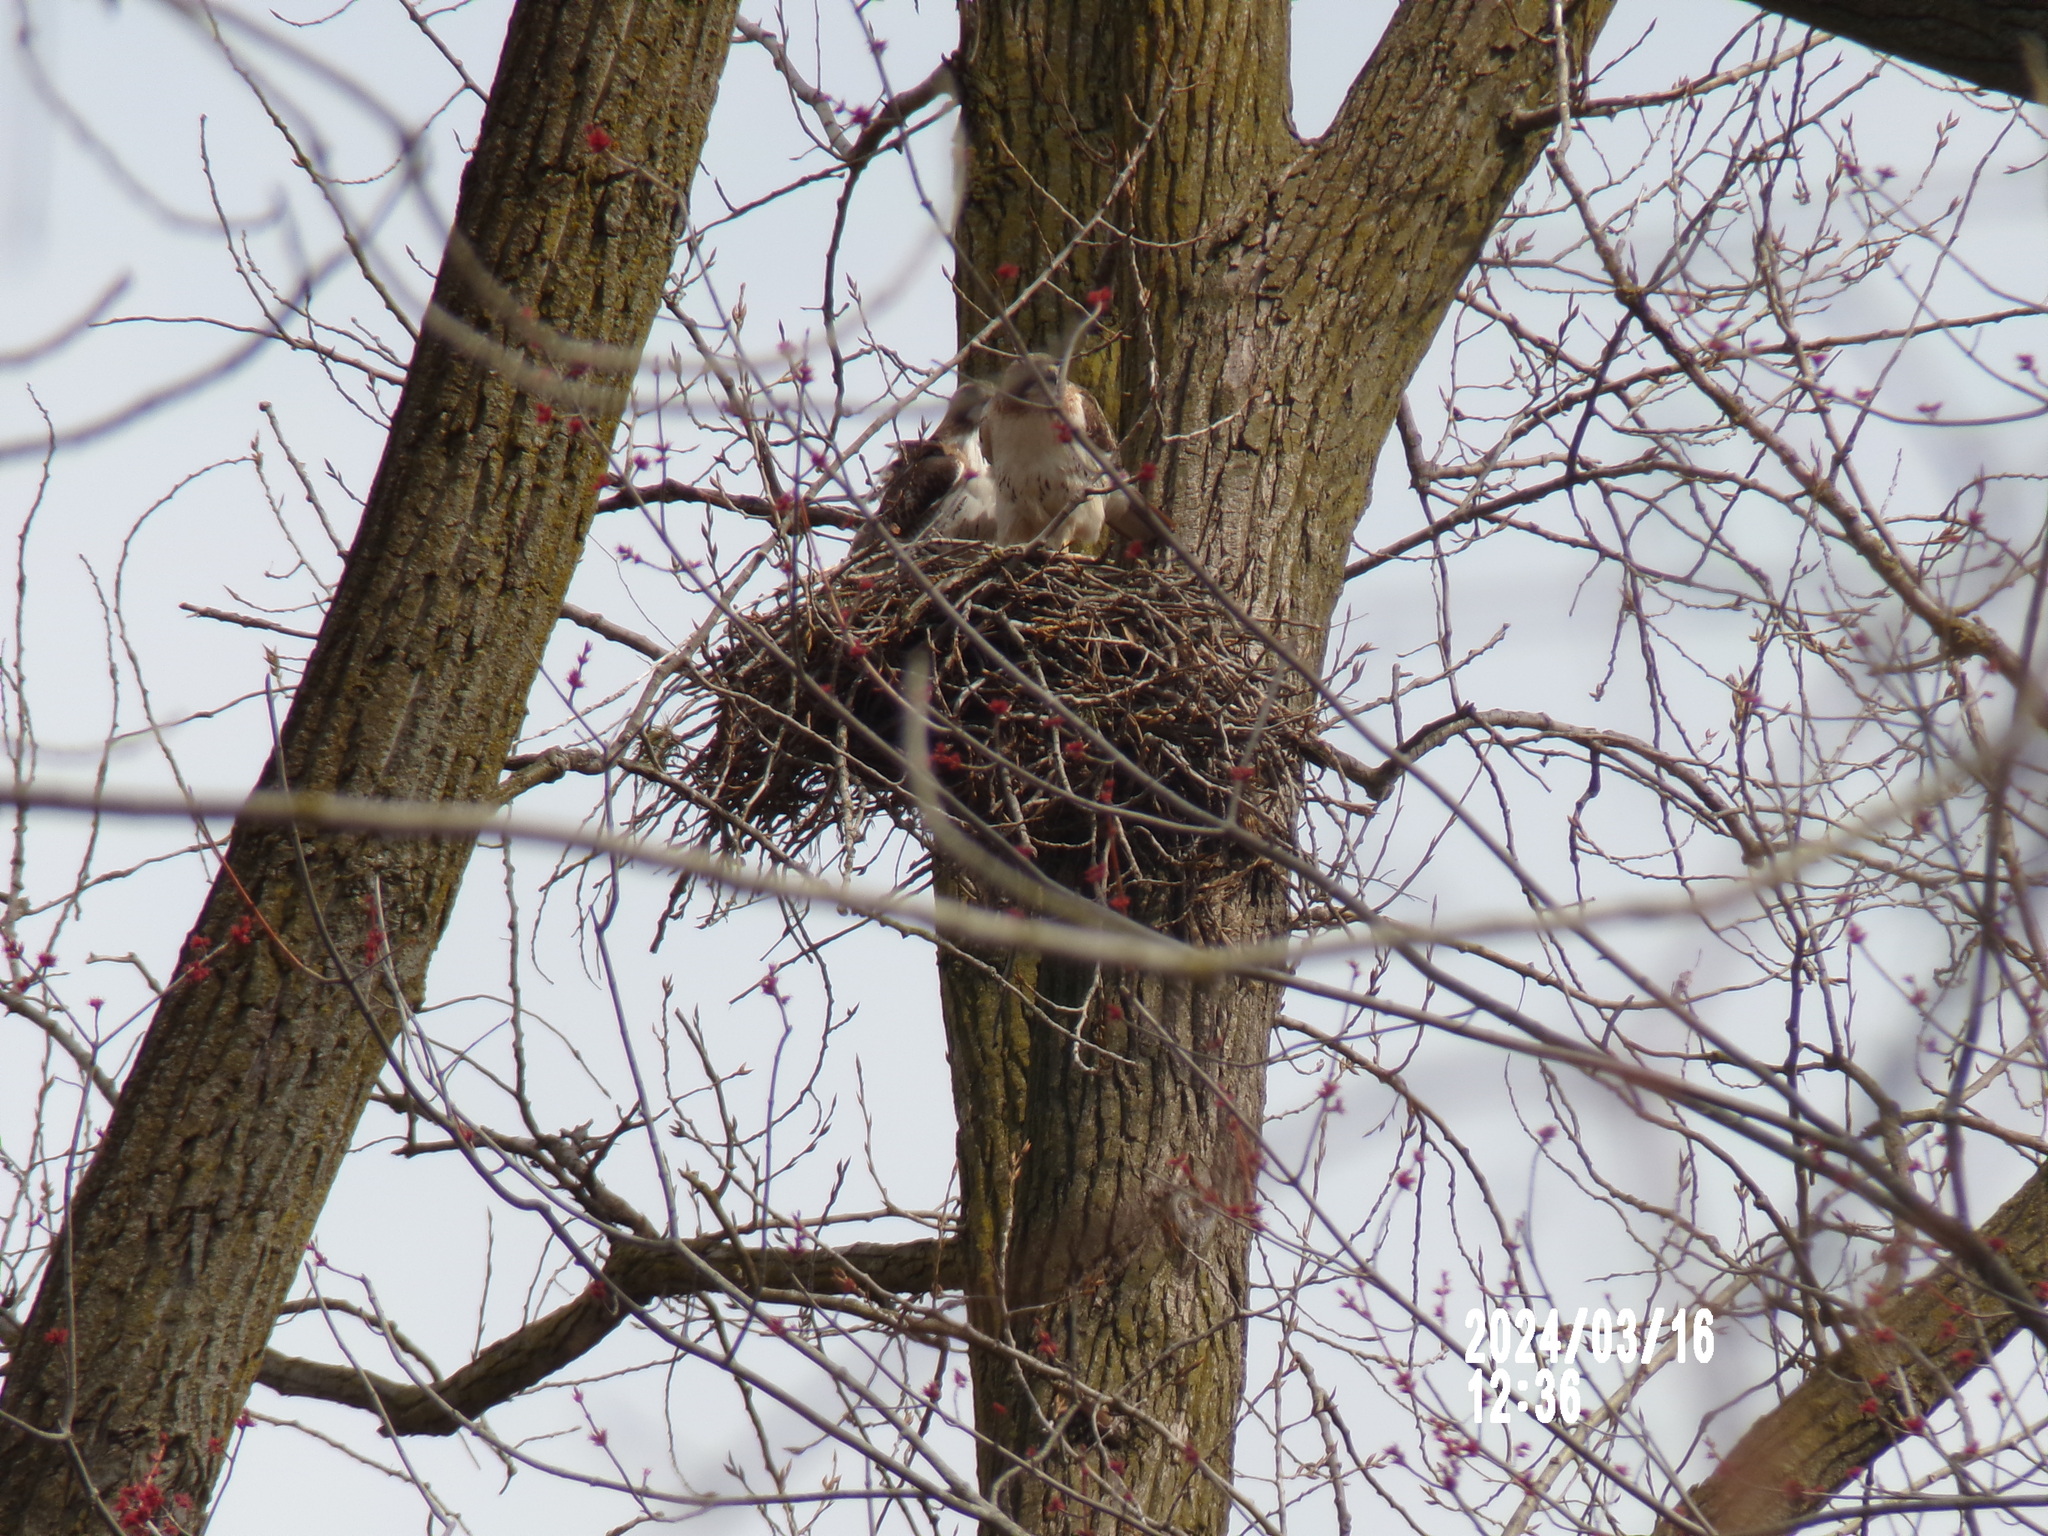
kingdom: Animalia
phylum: Chordata
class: Aves
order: Accipitriformes
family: Accipitridae
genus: Buteo
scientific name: Buteo jamaicensis
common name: Red-tailed hawk
